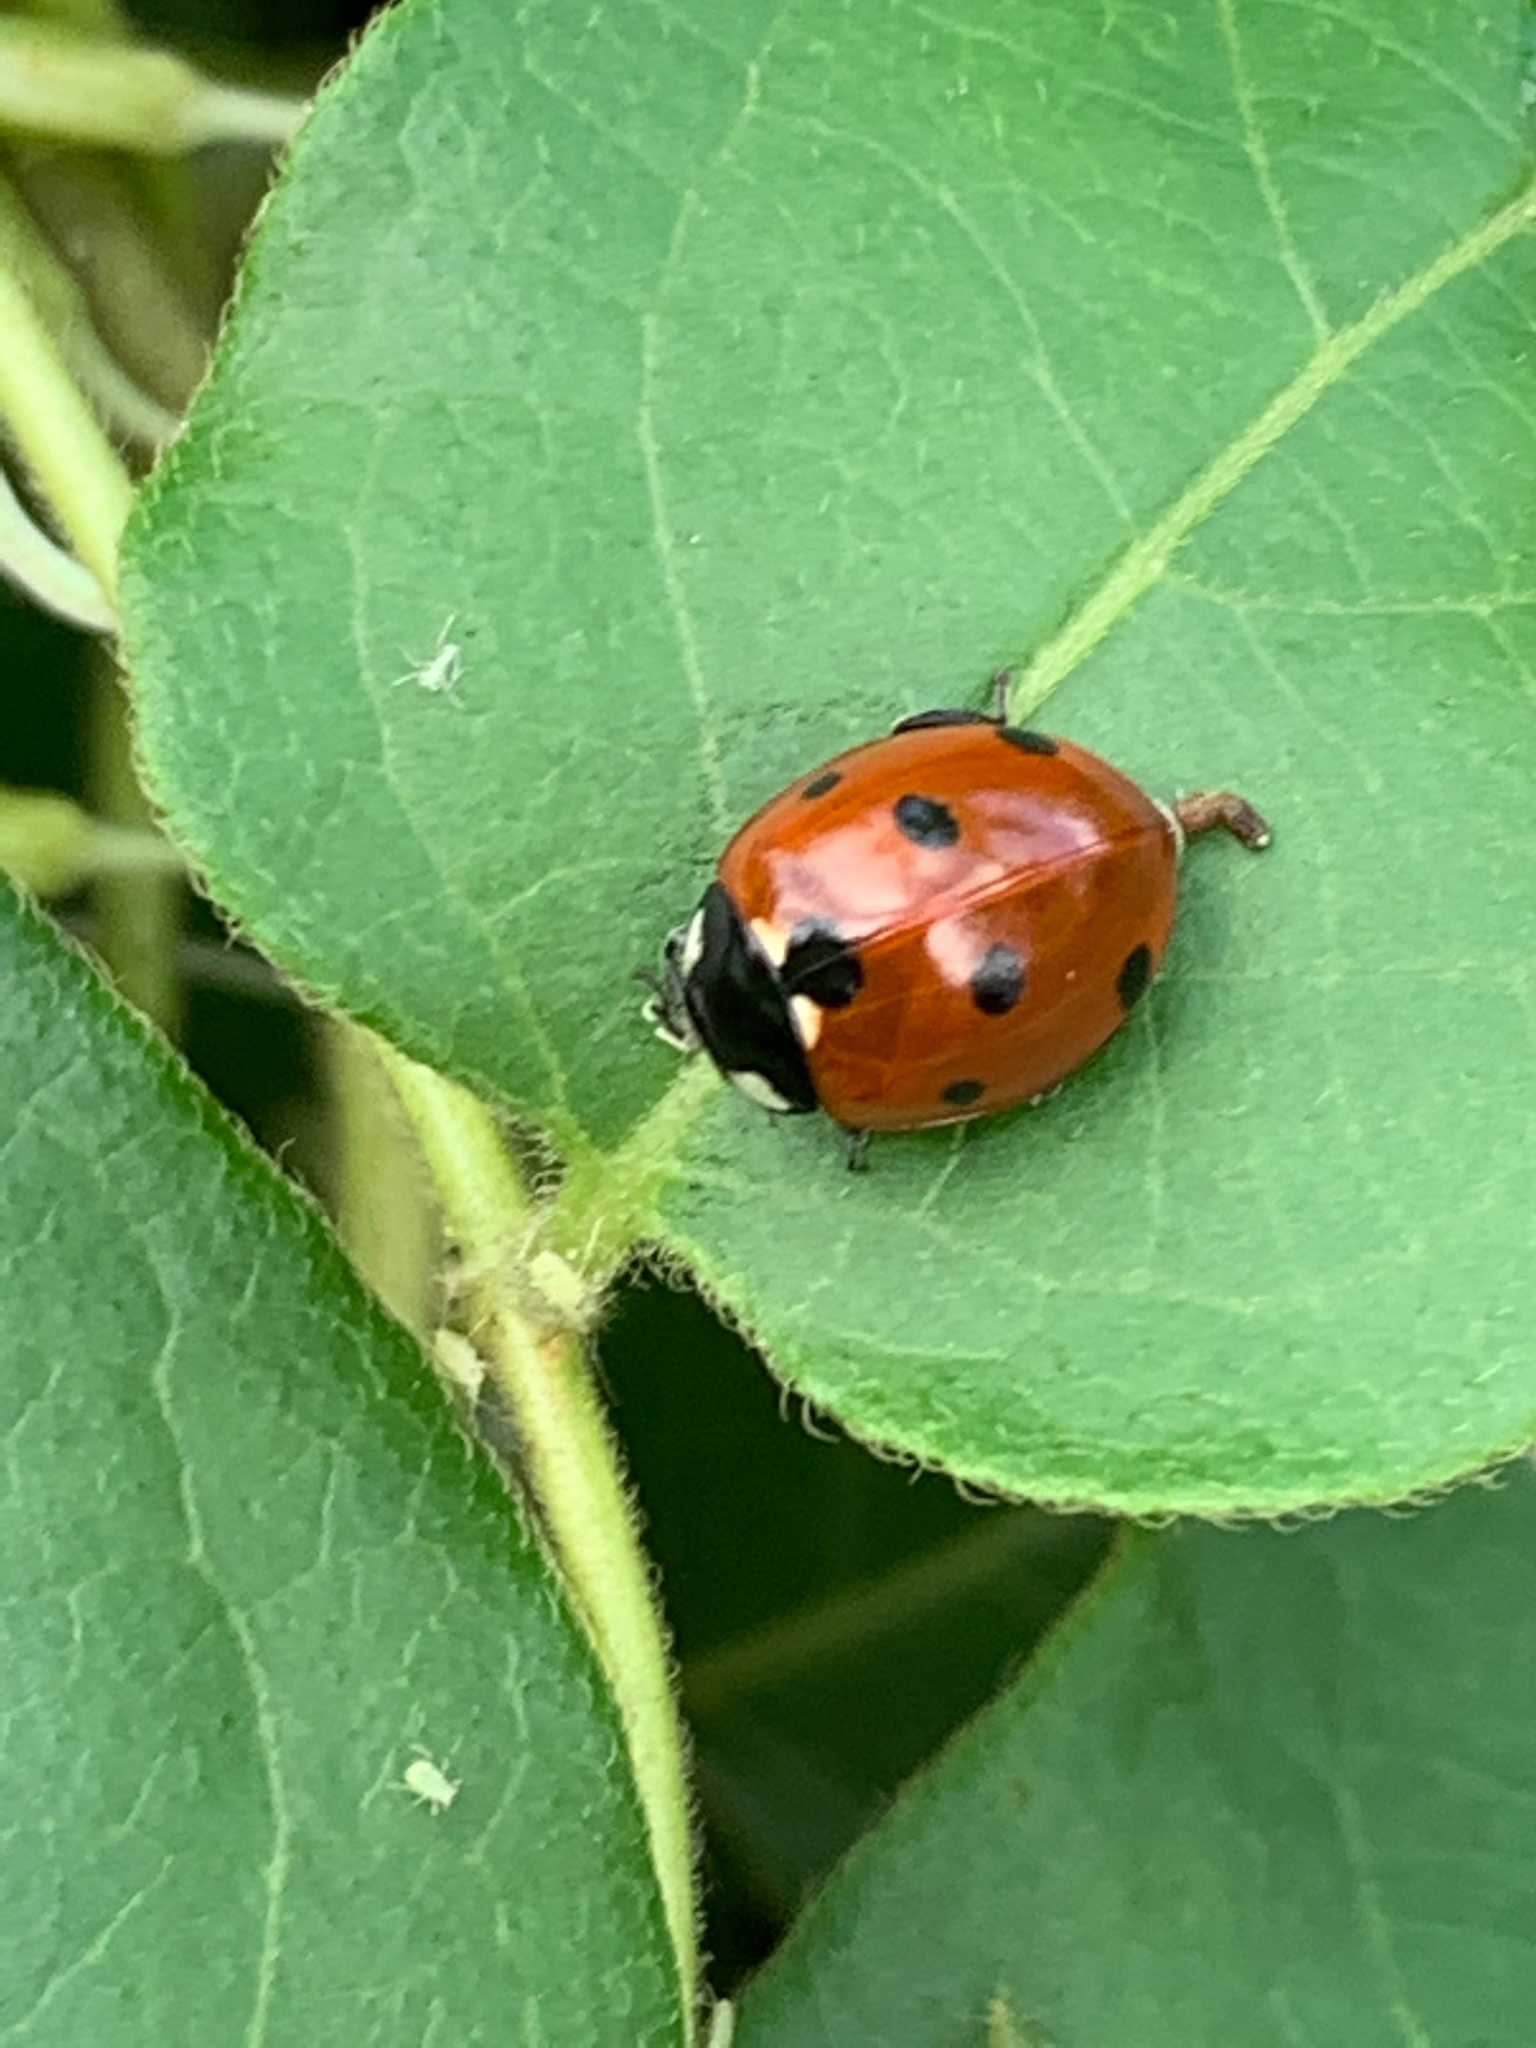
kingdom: Animalia
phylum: Arthropoda
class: Insecta
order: Coleoptera
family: Coccinellidae
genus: Coccinella
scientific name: Coccinella septempunctata
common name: Sevenspotted lady beetle
